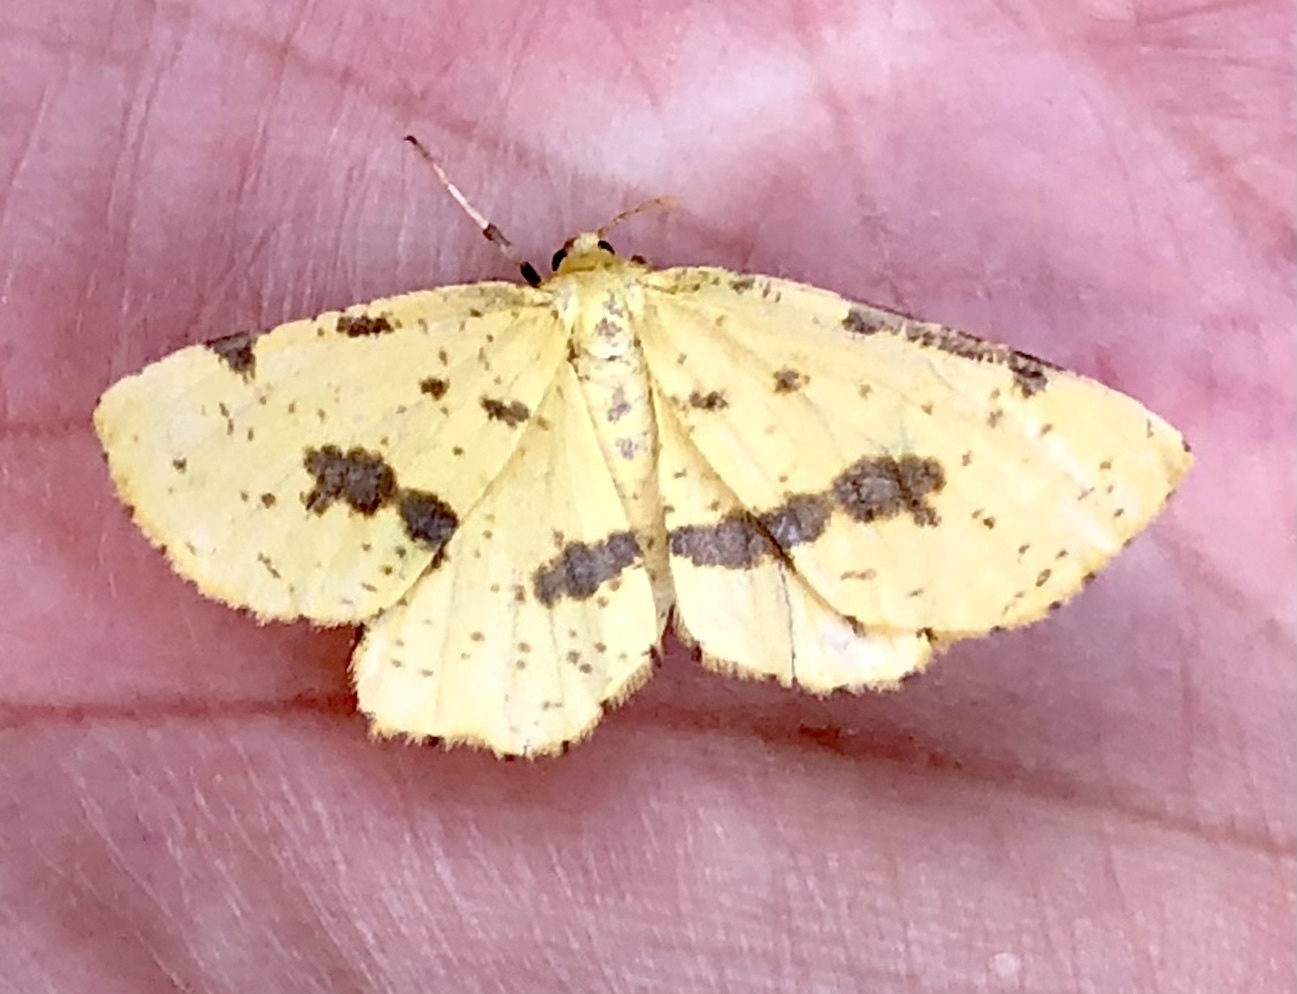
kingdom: Animalia
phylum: Arthropoda
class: Insecta
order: Lepidoptera
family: Geometridae
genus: Xanthotype
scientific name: Xanthotype
